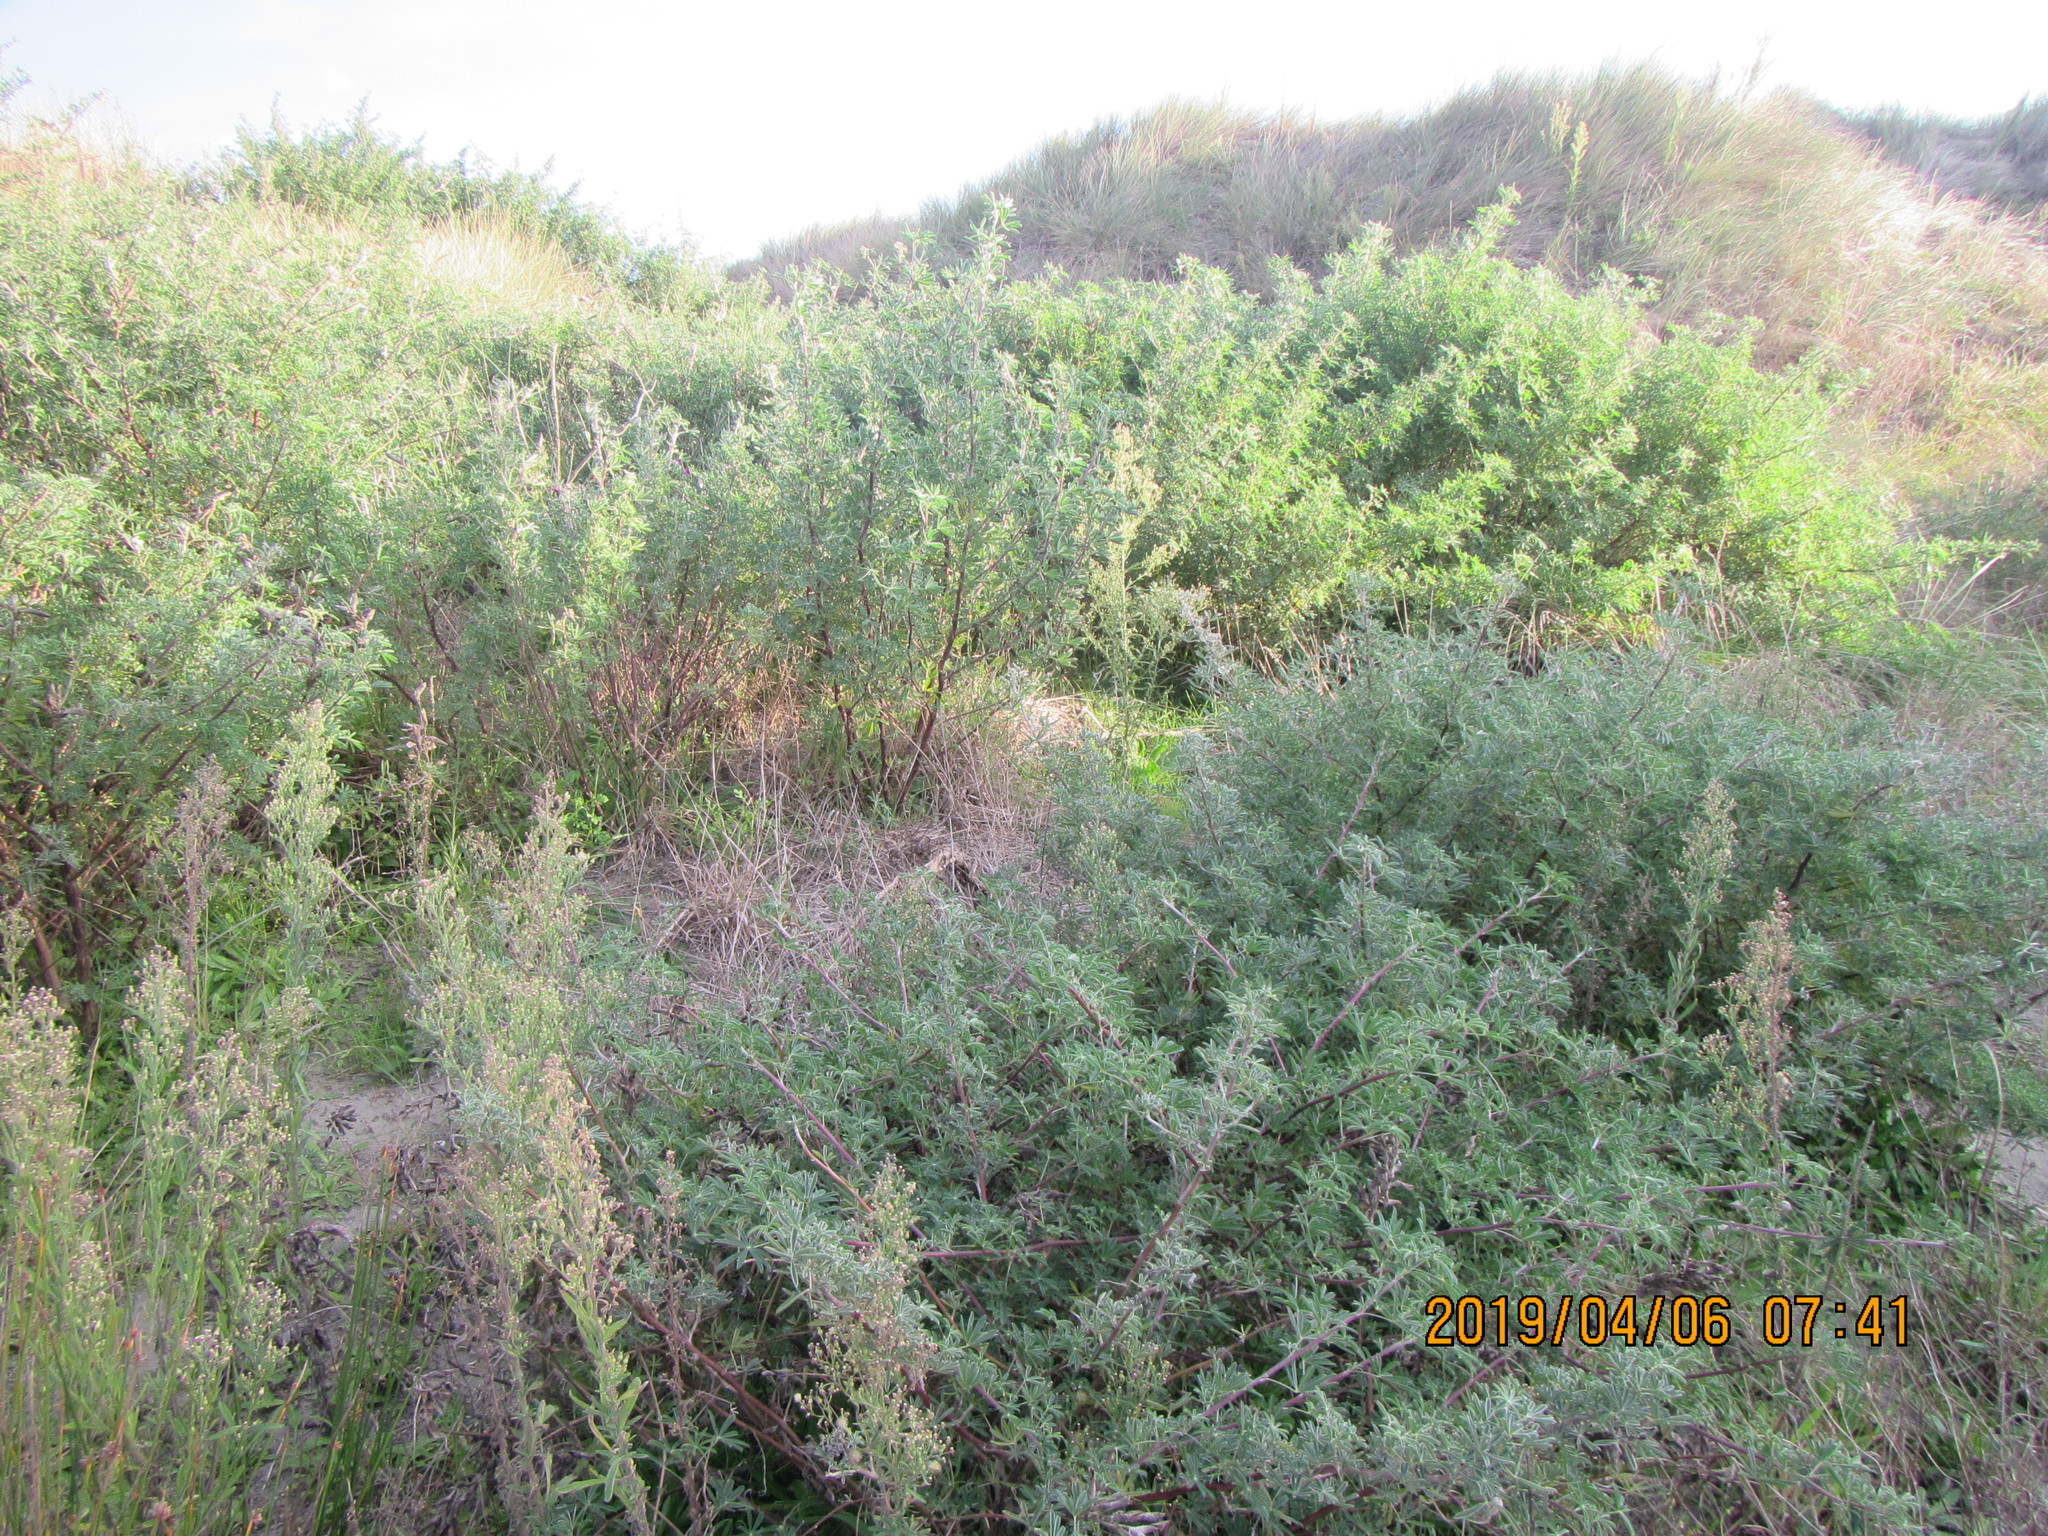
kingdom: Plantae
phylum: Tracheophyta
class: Magnoliopsida
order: Fabales
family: Fabaceae
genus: Lupinus
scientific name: Lupinus arboreus
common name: Yellow bush lupine
